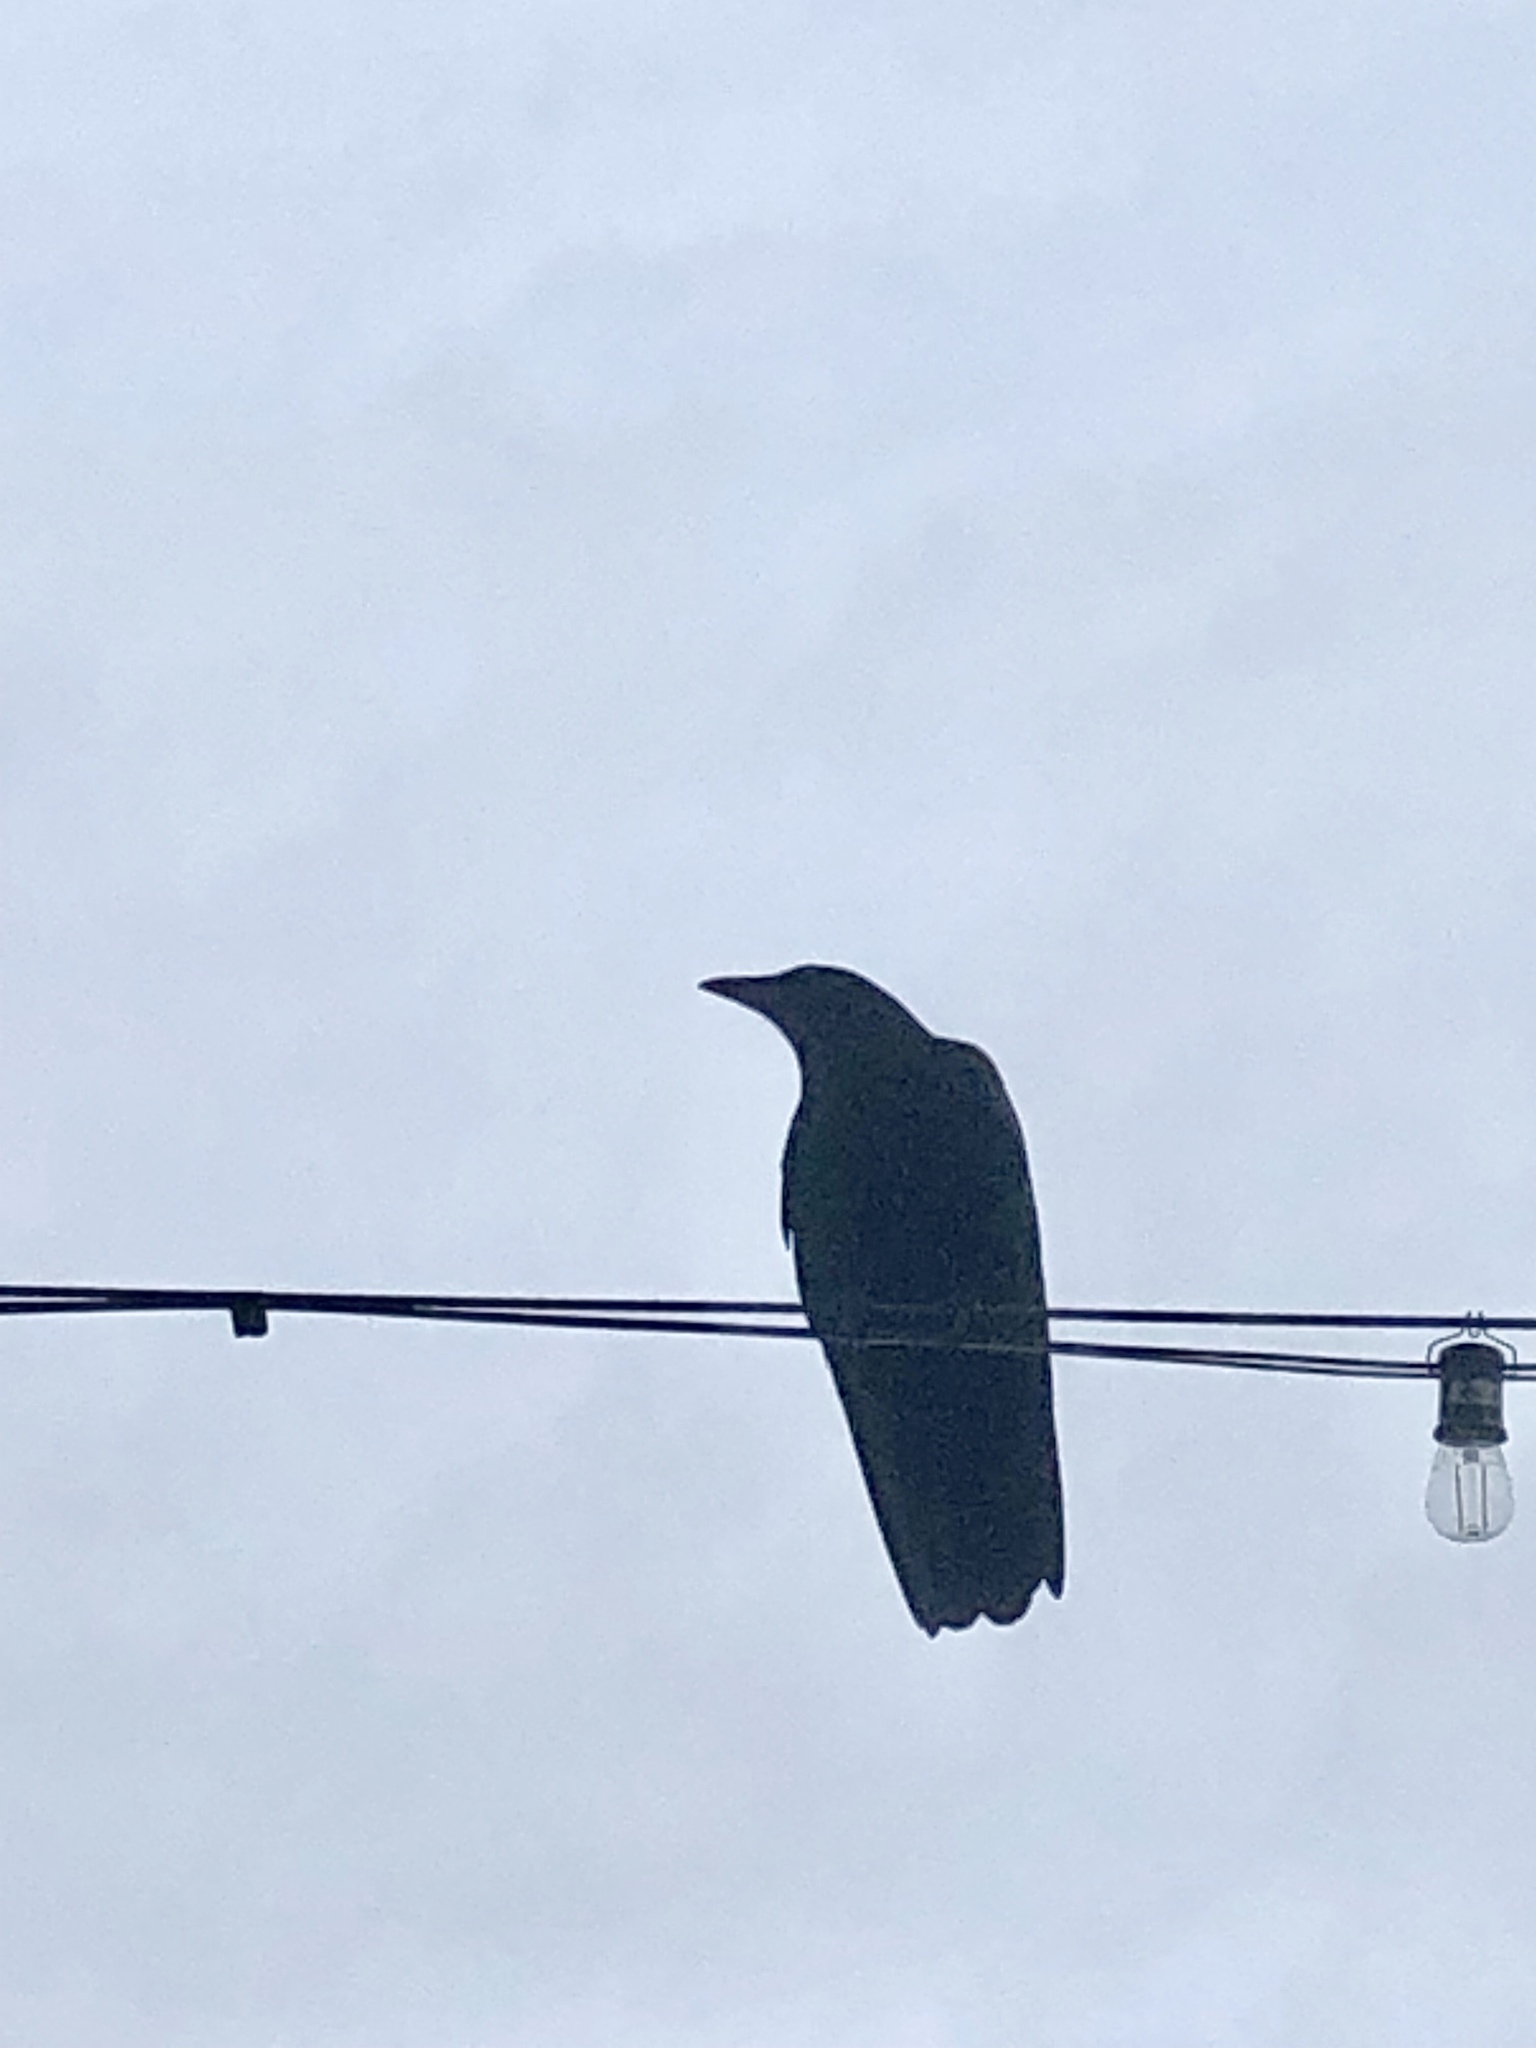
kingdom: Animalia
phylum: Chordata
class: Aves
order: Passeriformes
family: Corvidae
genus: Corvus
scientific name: Corvus brachyrhynchos
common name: American crow
